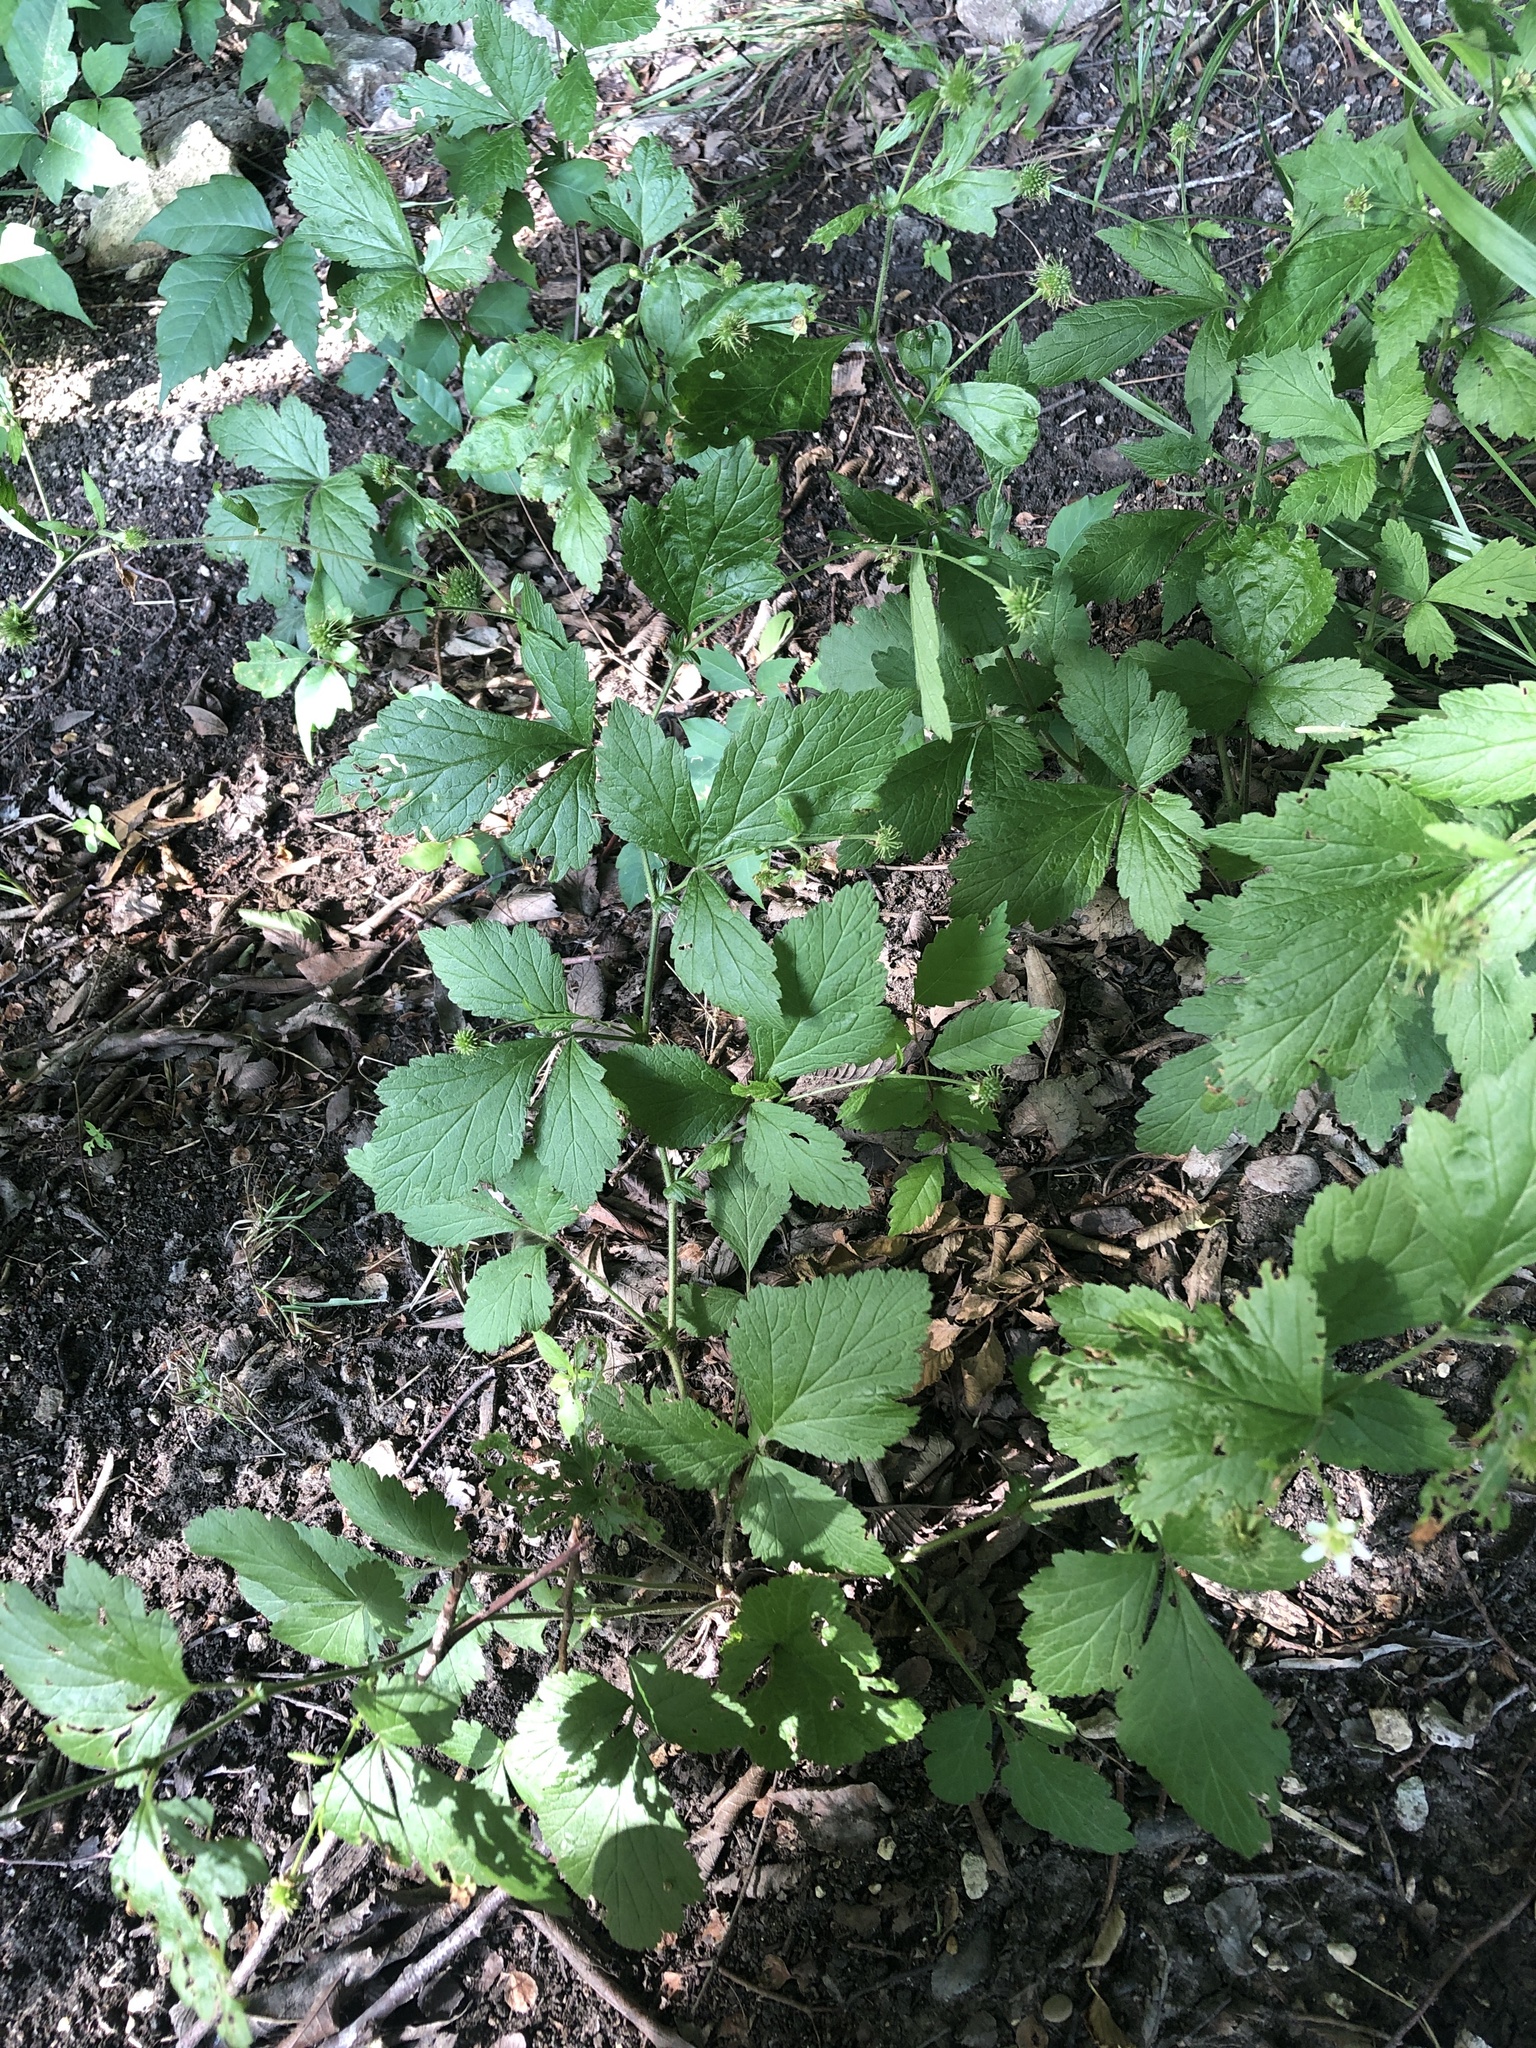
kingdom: Plantae
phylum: Tracheophyta
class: Magnoliopsida
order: Rosales
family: Rosaceae
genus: Geum
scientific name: Geum canadense
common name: White avens
